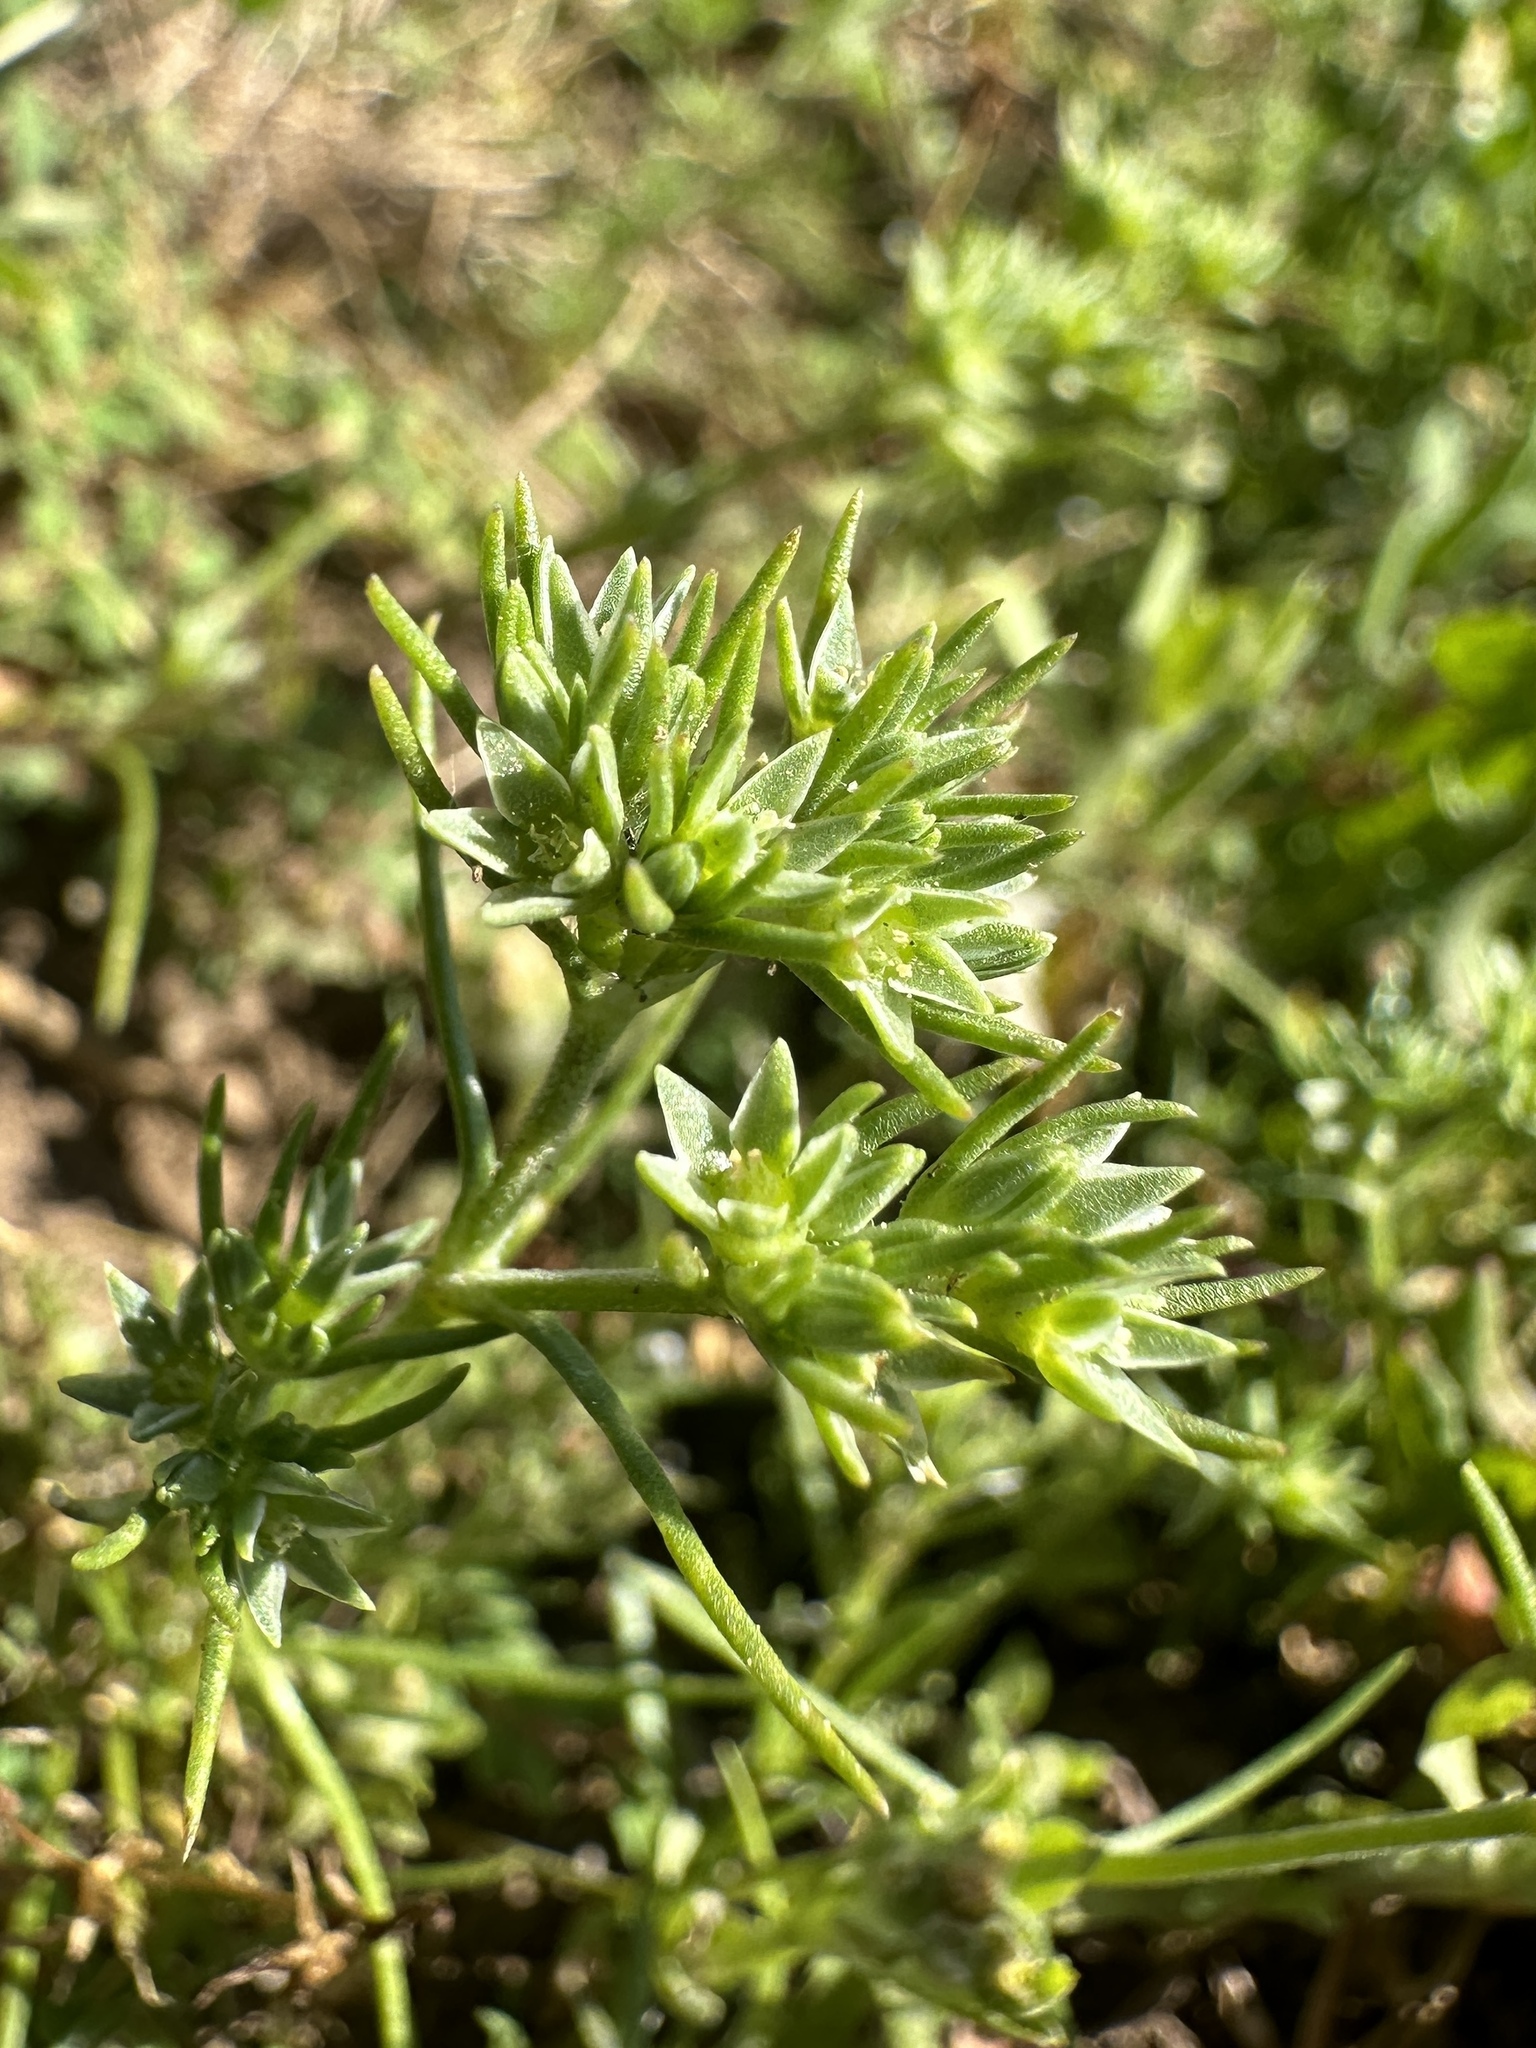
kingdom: Plantae
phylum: Tracheophyta
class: Magnoliopsida
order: Caryophyllales
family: Caryophyllaceae
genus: Scleranthus
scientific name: Scleranthus annuus
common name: Annual knawel
